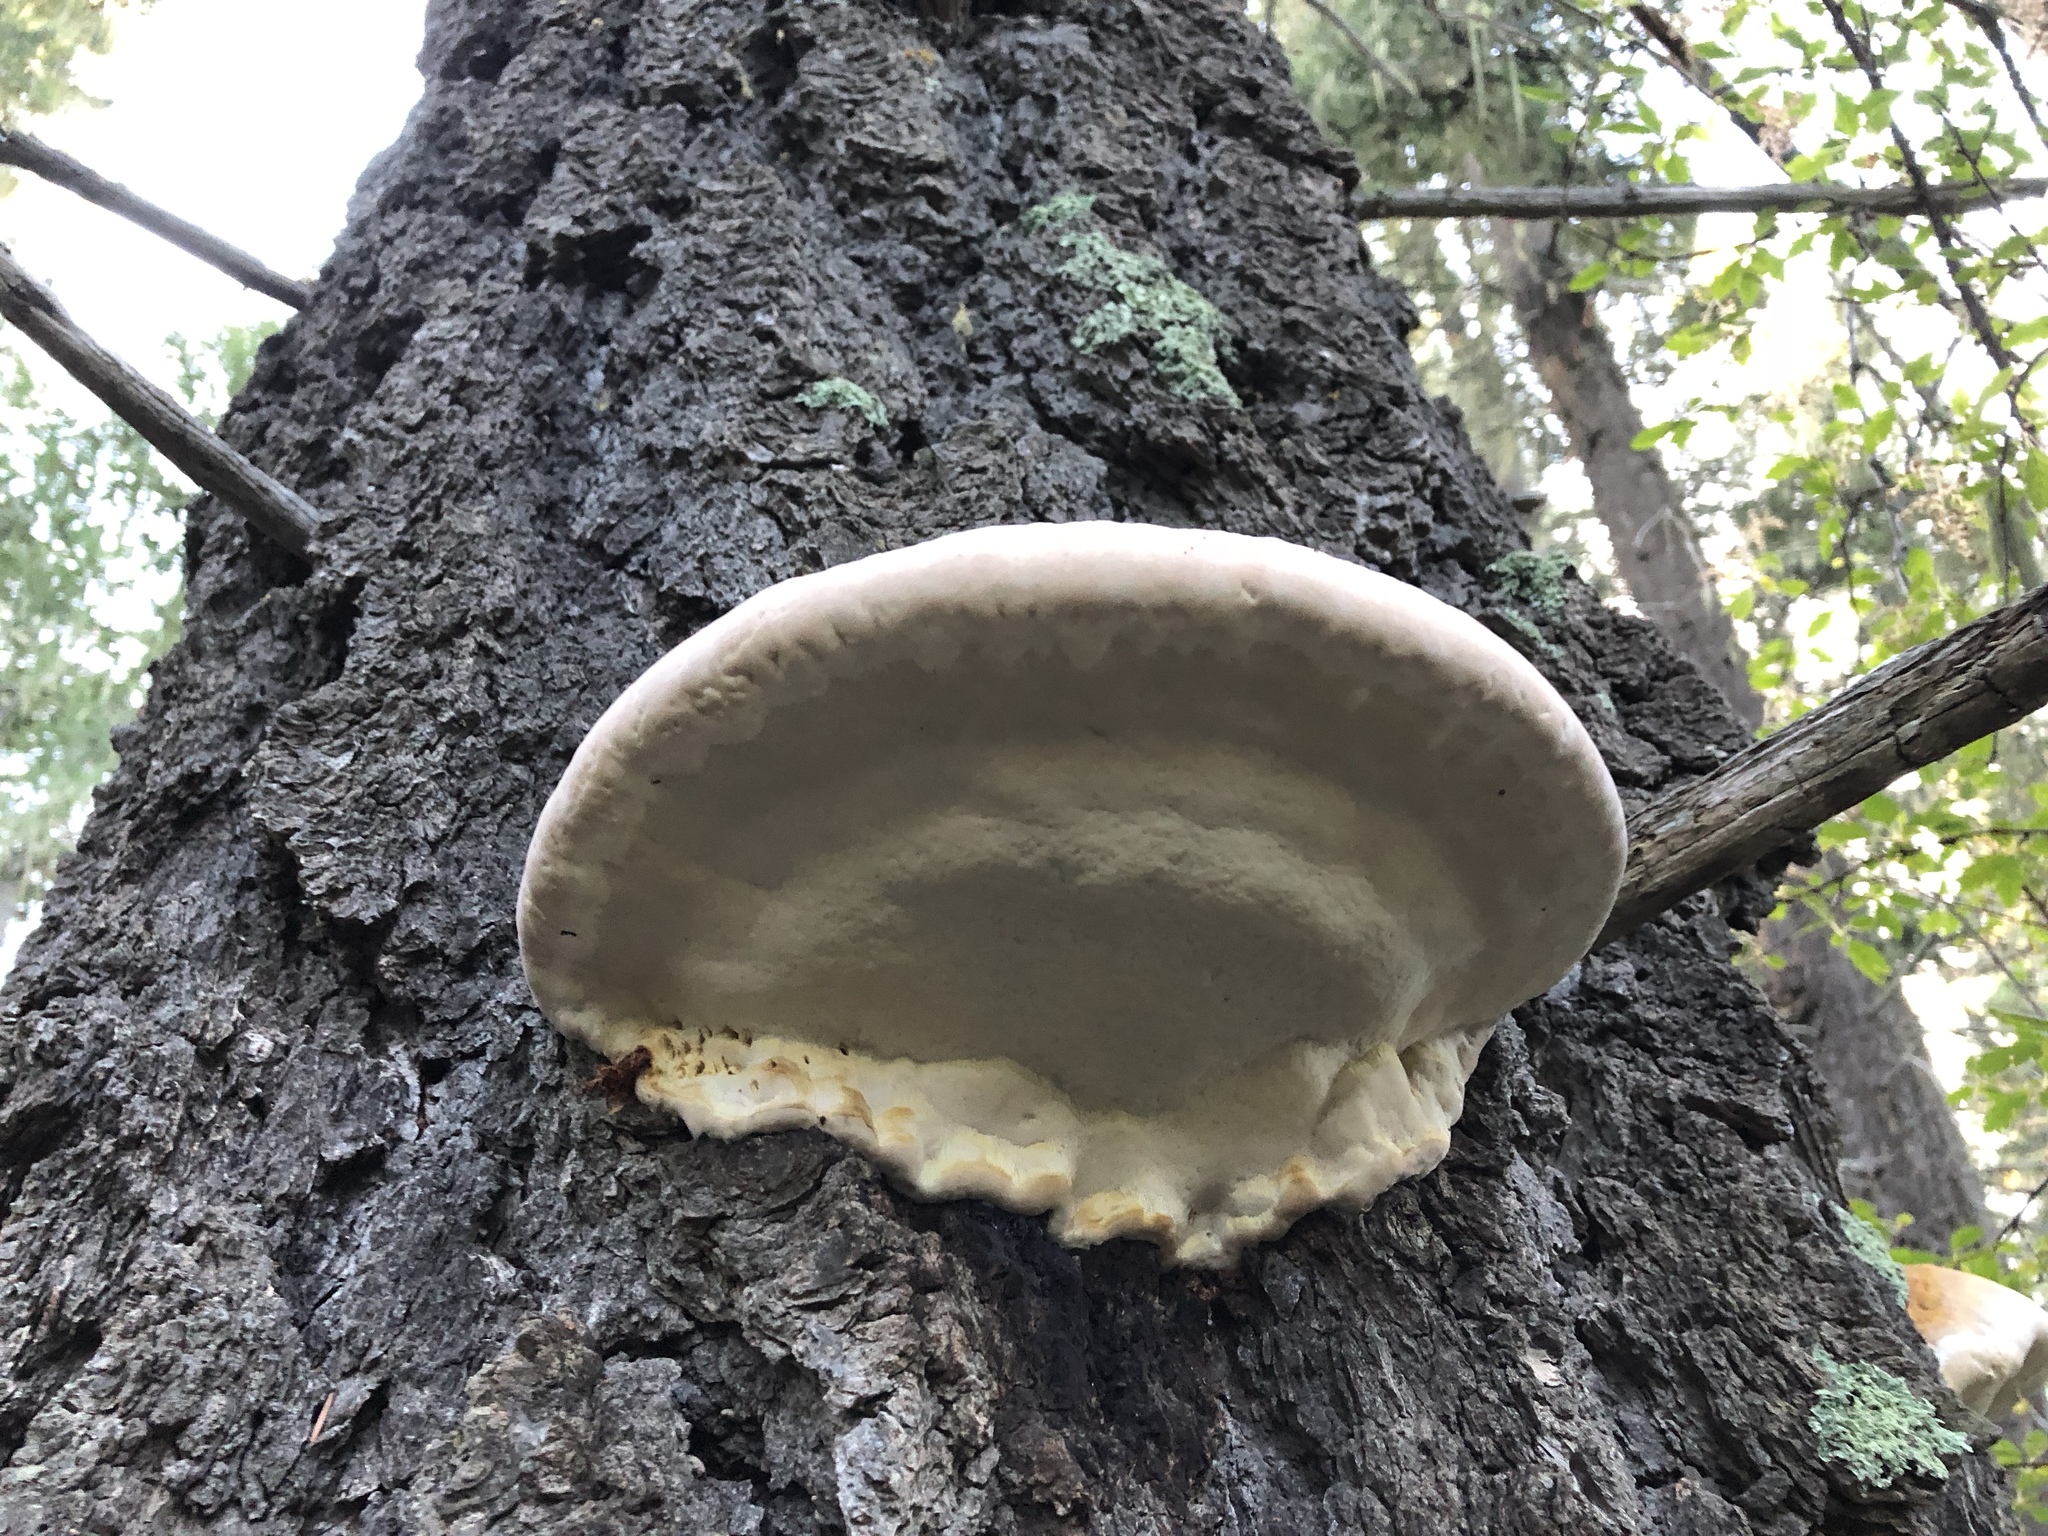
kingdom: Fungi
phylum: Basidiomycota
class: Agaricomycetes
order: Polyporales
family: Fomitopsidaceae
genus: Fomitopsis
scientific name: Fomitopsis schrenkii
